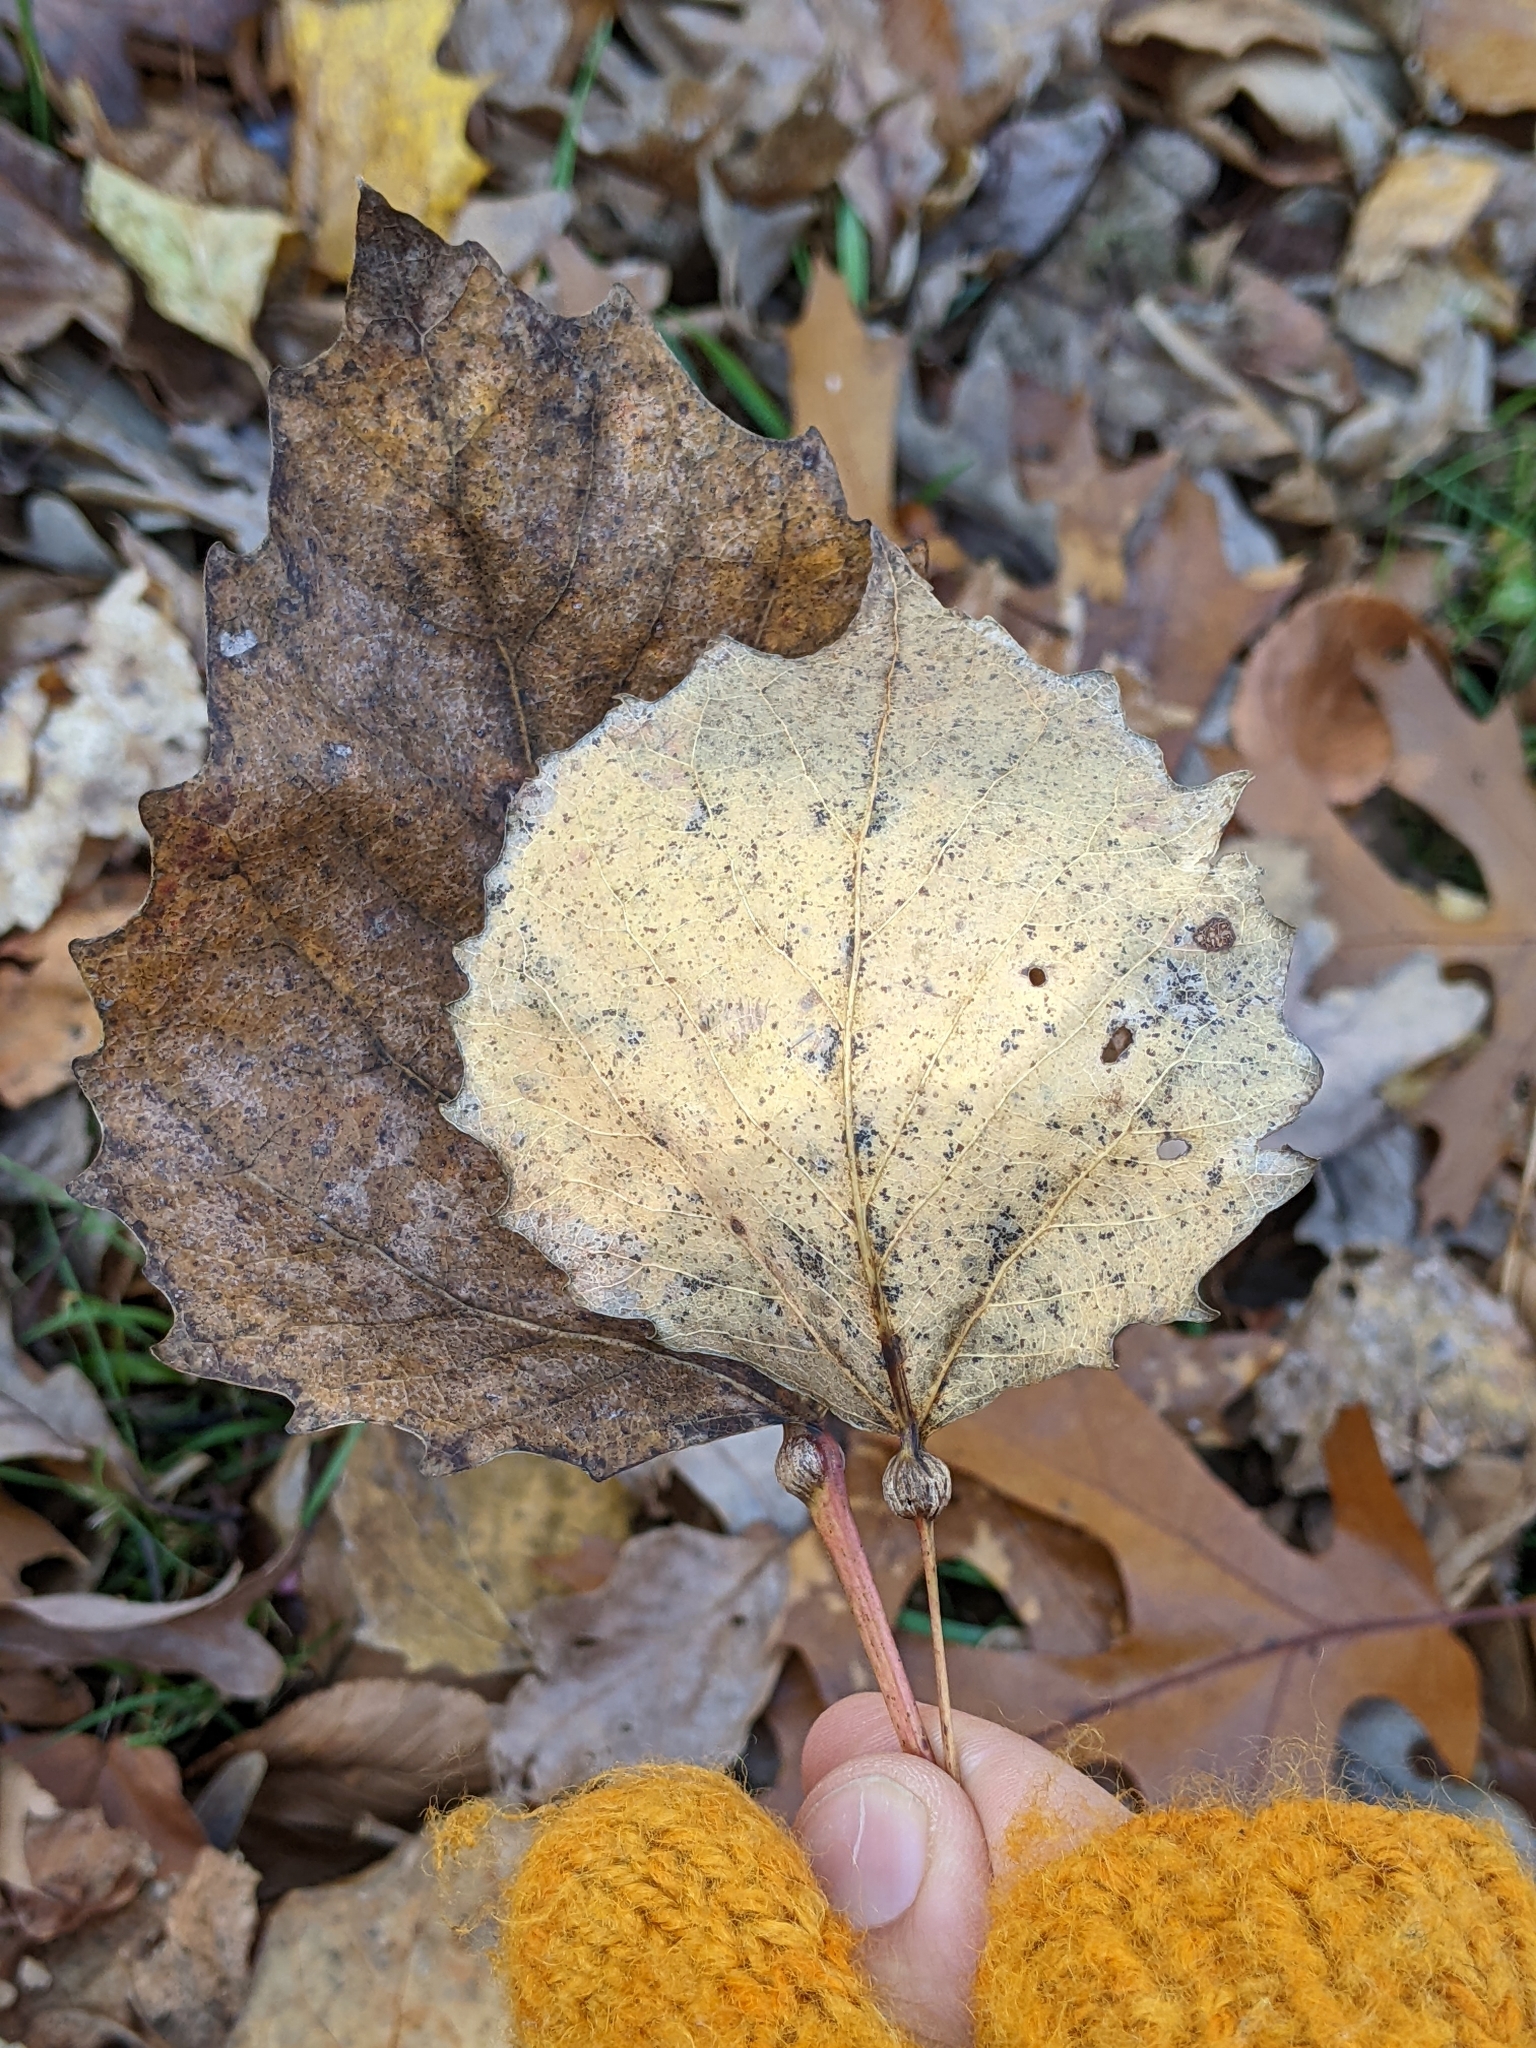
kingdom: Plantae
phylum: Tracheophyta
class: Magnoliopsida
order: Malpighiales
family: Salicaceae
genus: Populus
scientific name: Populus grandidentata
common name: Bigtooth aspen
